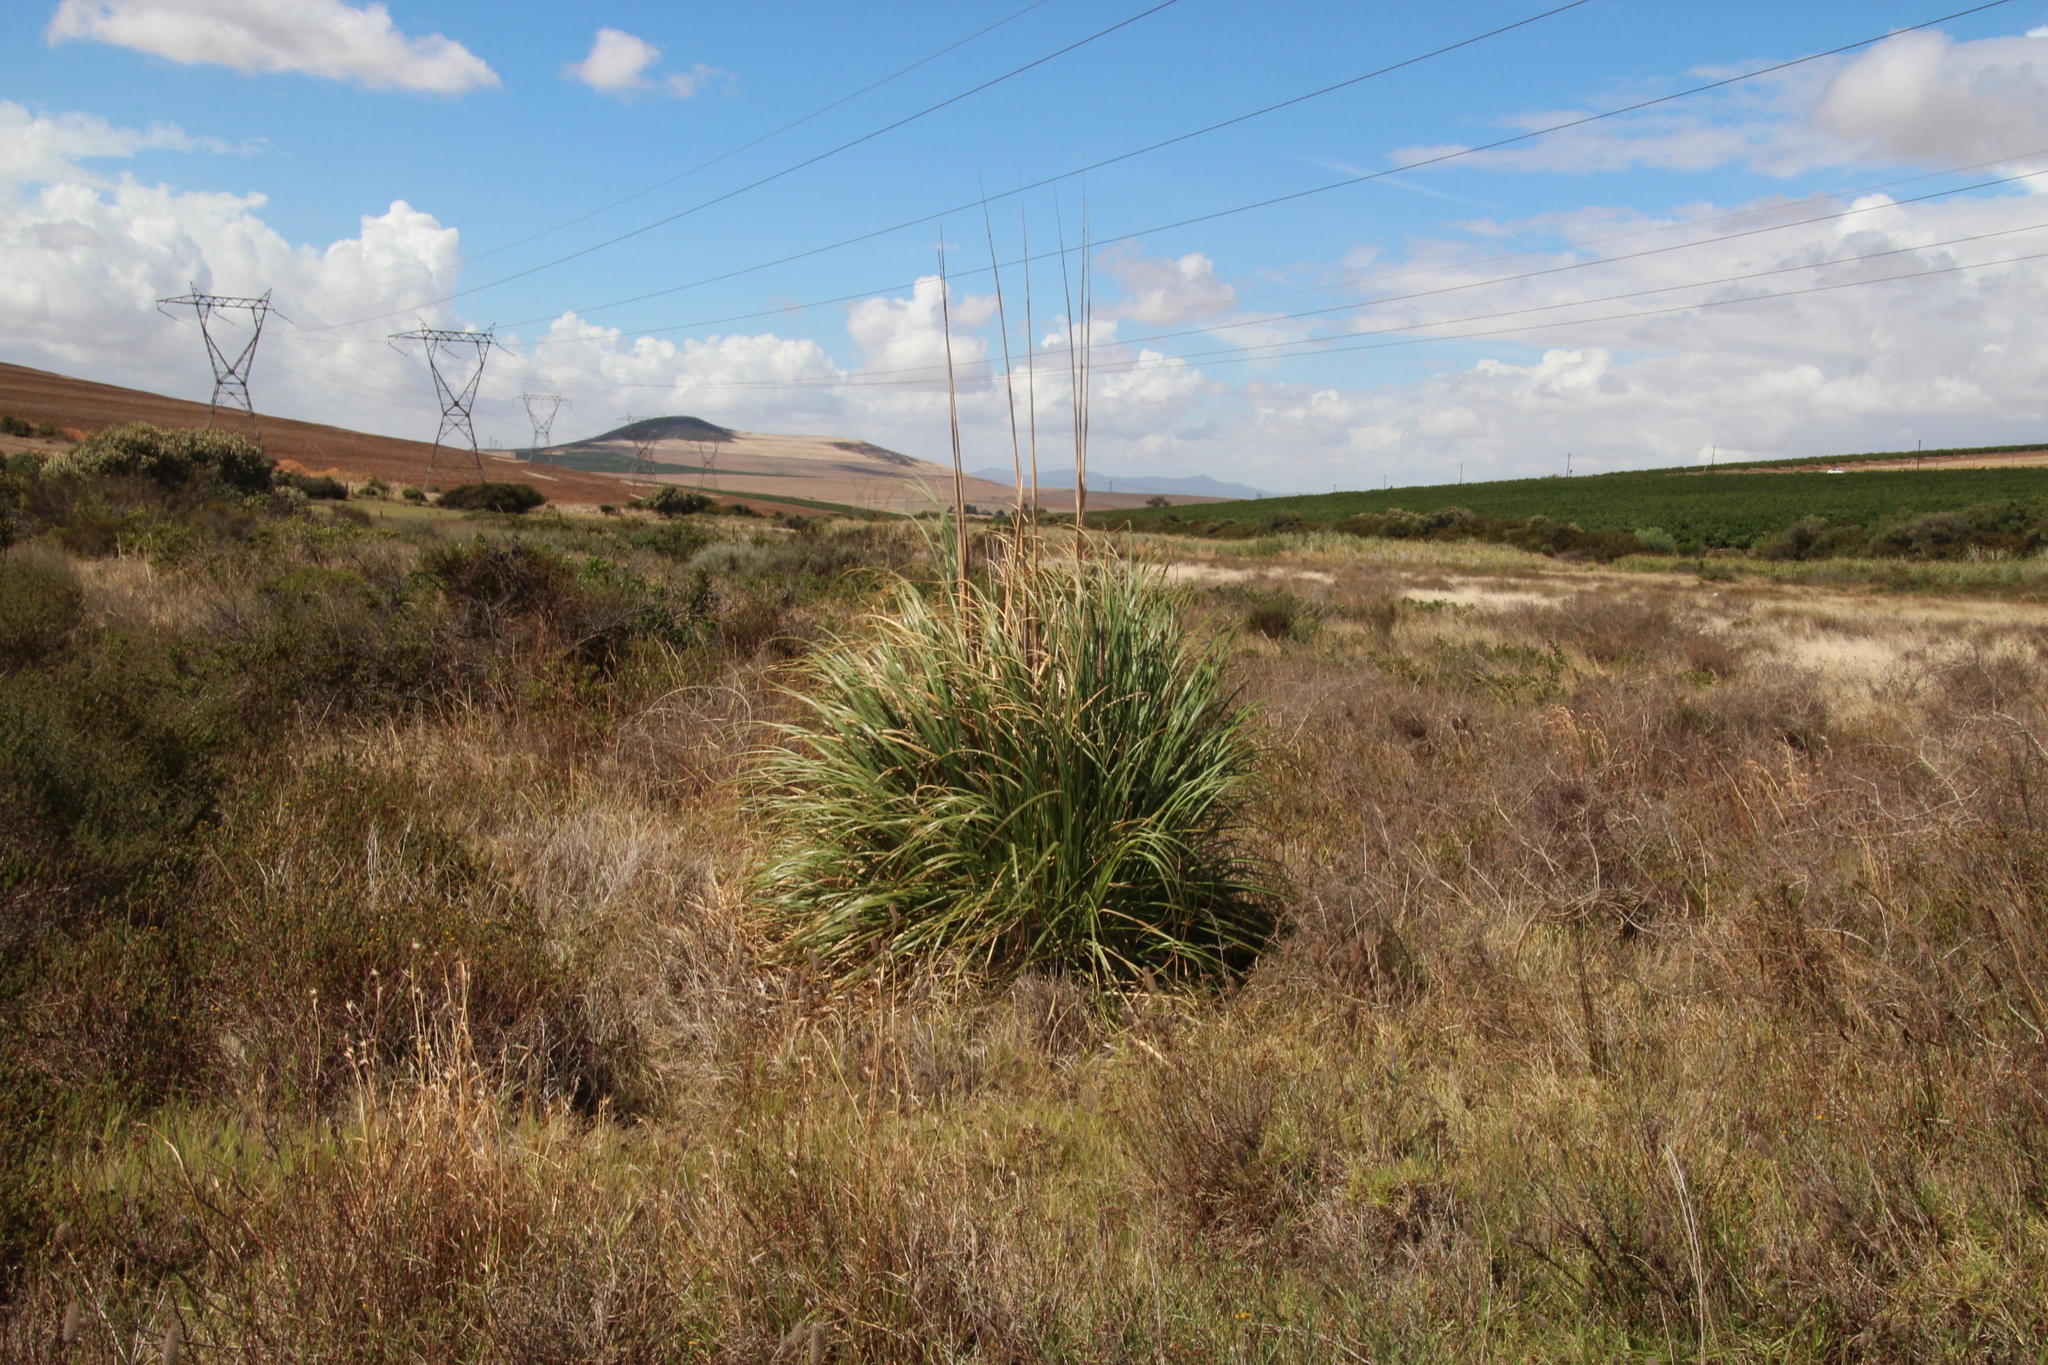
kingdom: Plantae
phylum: Tracheophyta
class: Liliopsida
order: Poales
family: Poaceae
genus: Cortaderia
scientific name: Cortaderia selloana
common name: Uruguayan pampas grass
